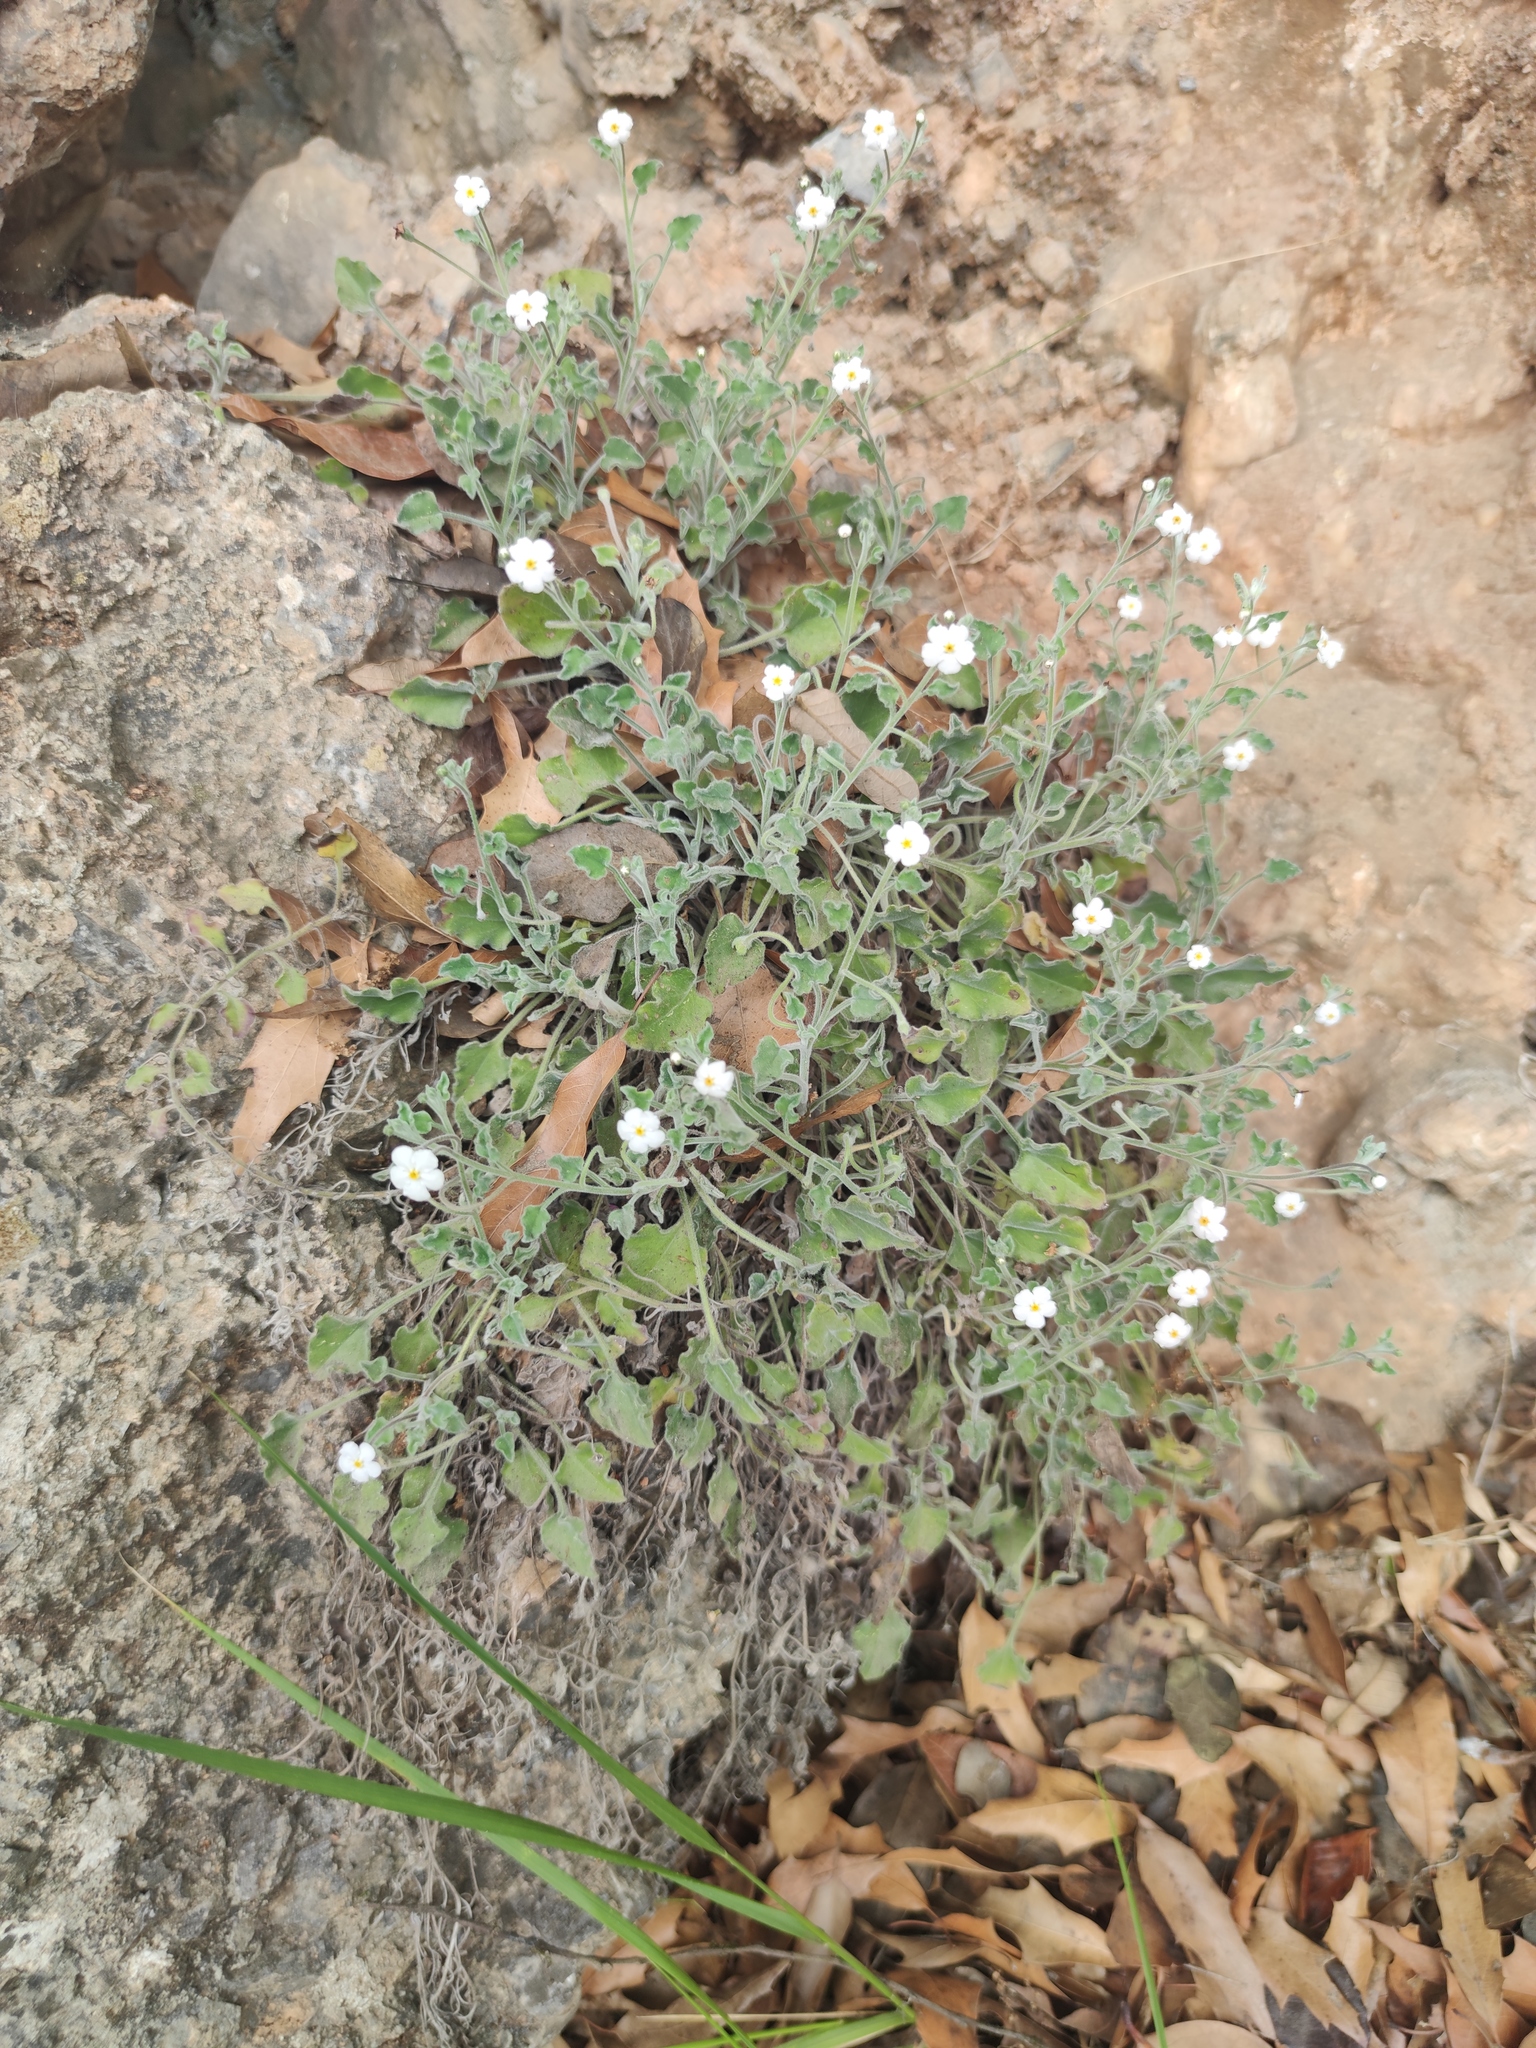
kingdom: Plantae
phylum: Tracheophyta
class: Magnoliopsida
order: Boraginales
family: Boraginaceae
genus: Mimophytum
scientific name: Mimophytum mexicanum
